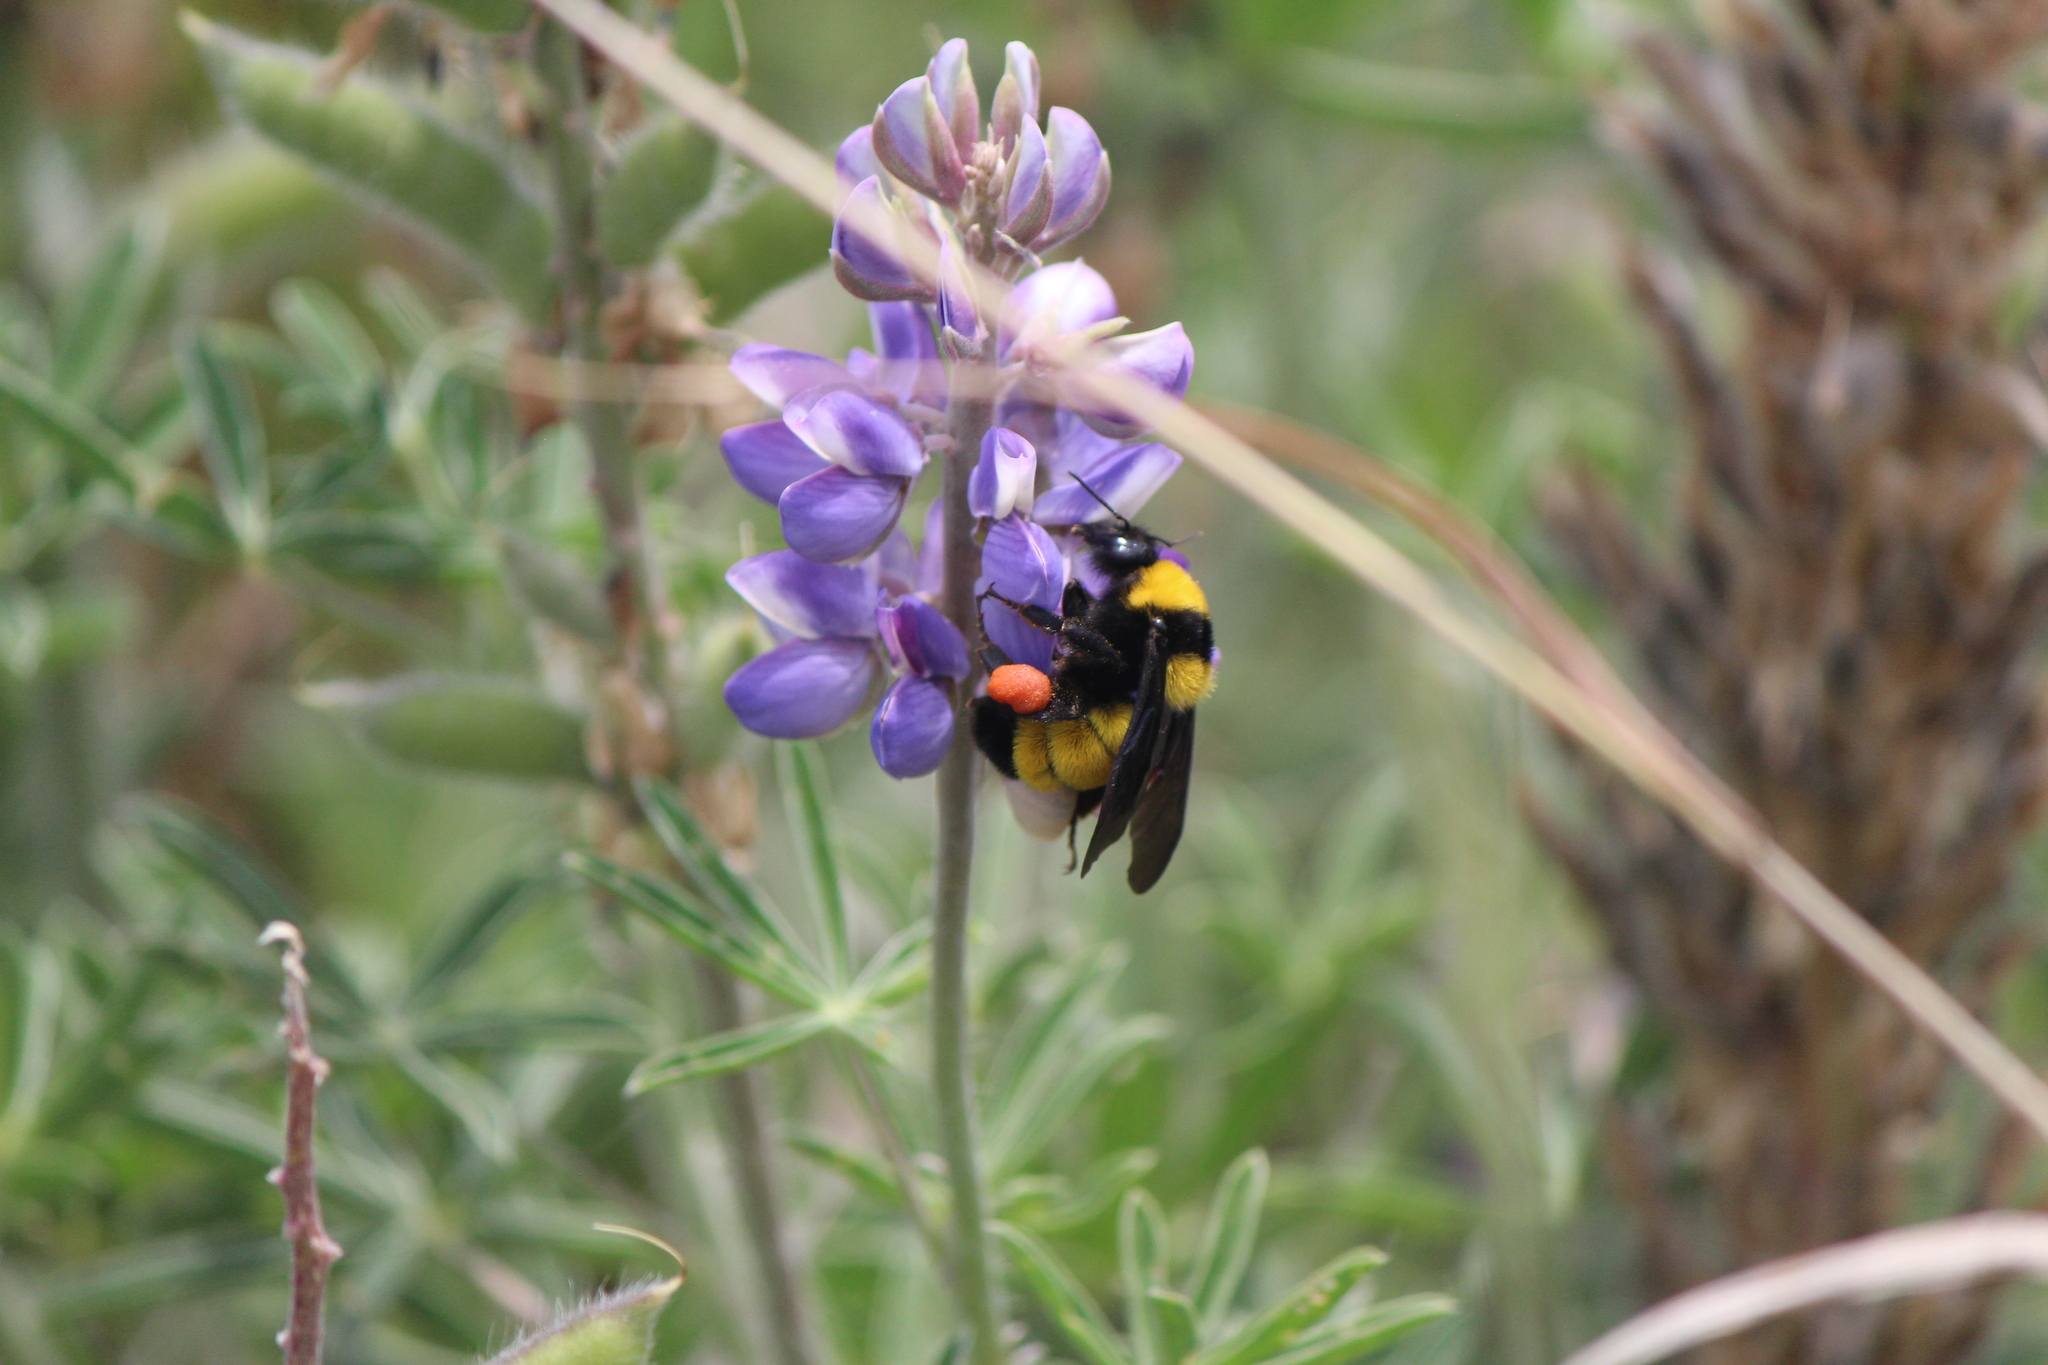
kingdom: Animalia
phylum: Arthropoda
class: Insecta
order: Hymenoptera
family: Apidae
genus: Bombus
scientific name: Bombus sonorus
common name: Sonoran bumble bee
